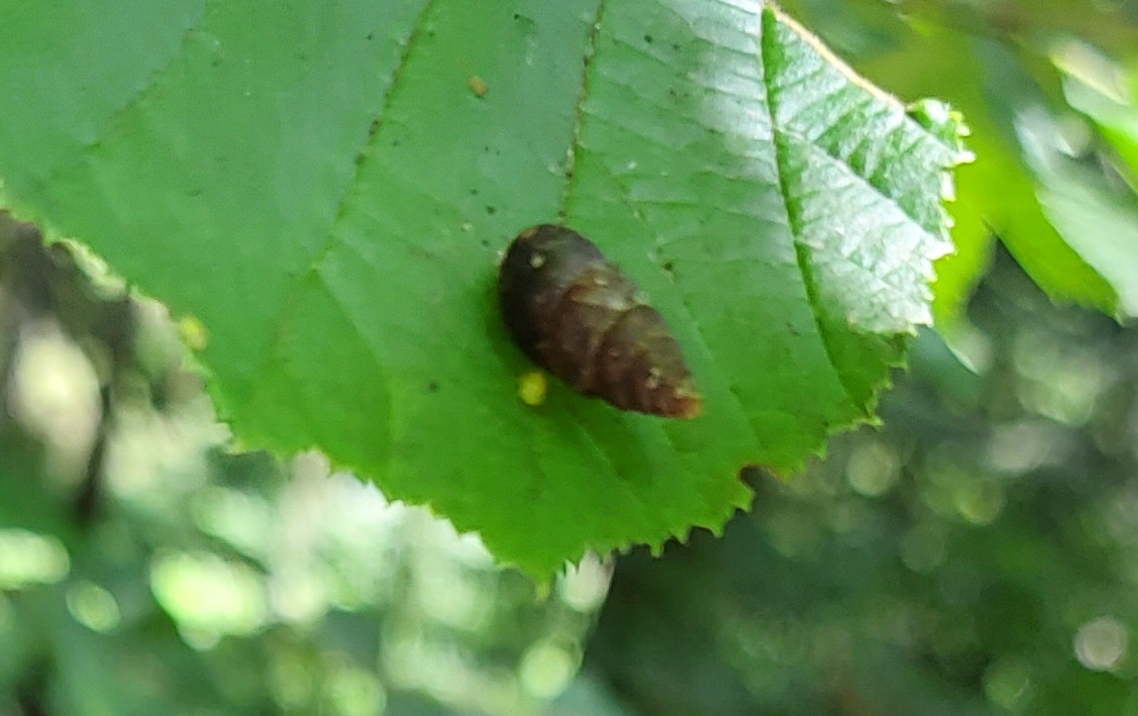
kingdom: Animalia
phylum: Mollusca
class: Gastropoda
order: Stylommatophora
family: Enidae
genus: Ena
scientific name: Ena montana
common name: Mountain bulin
